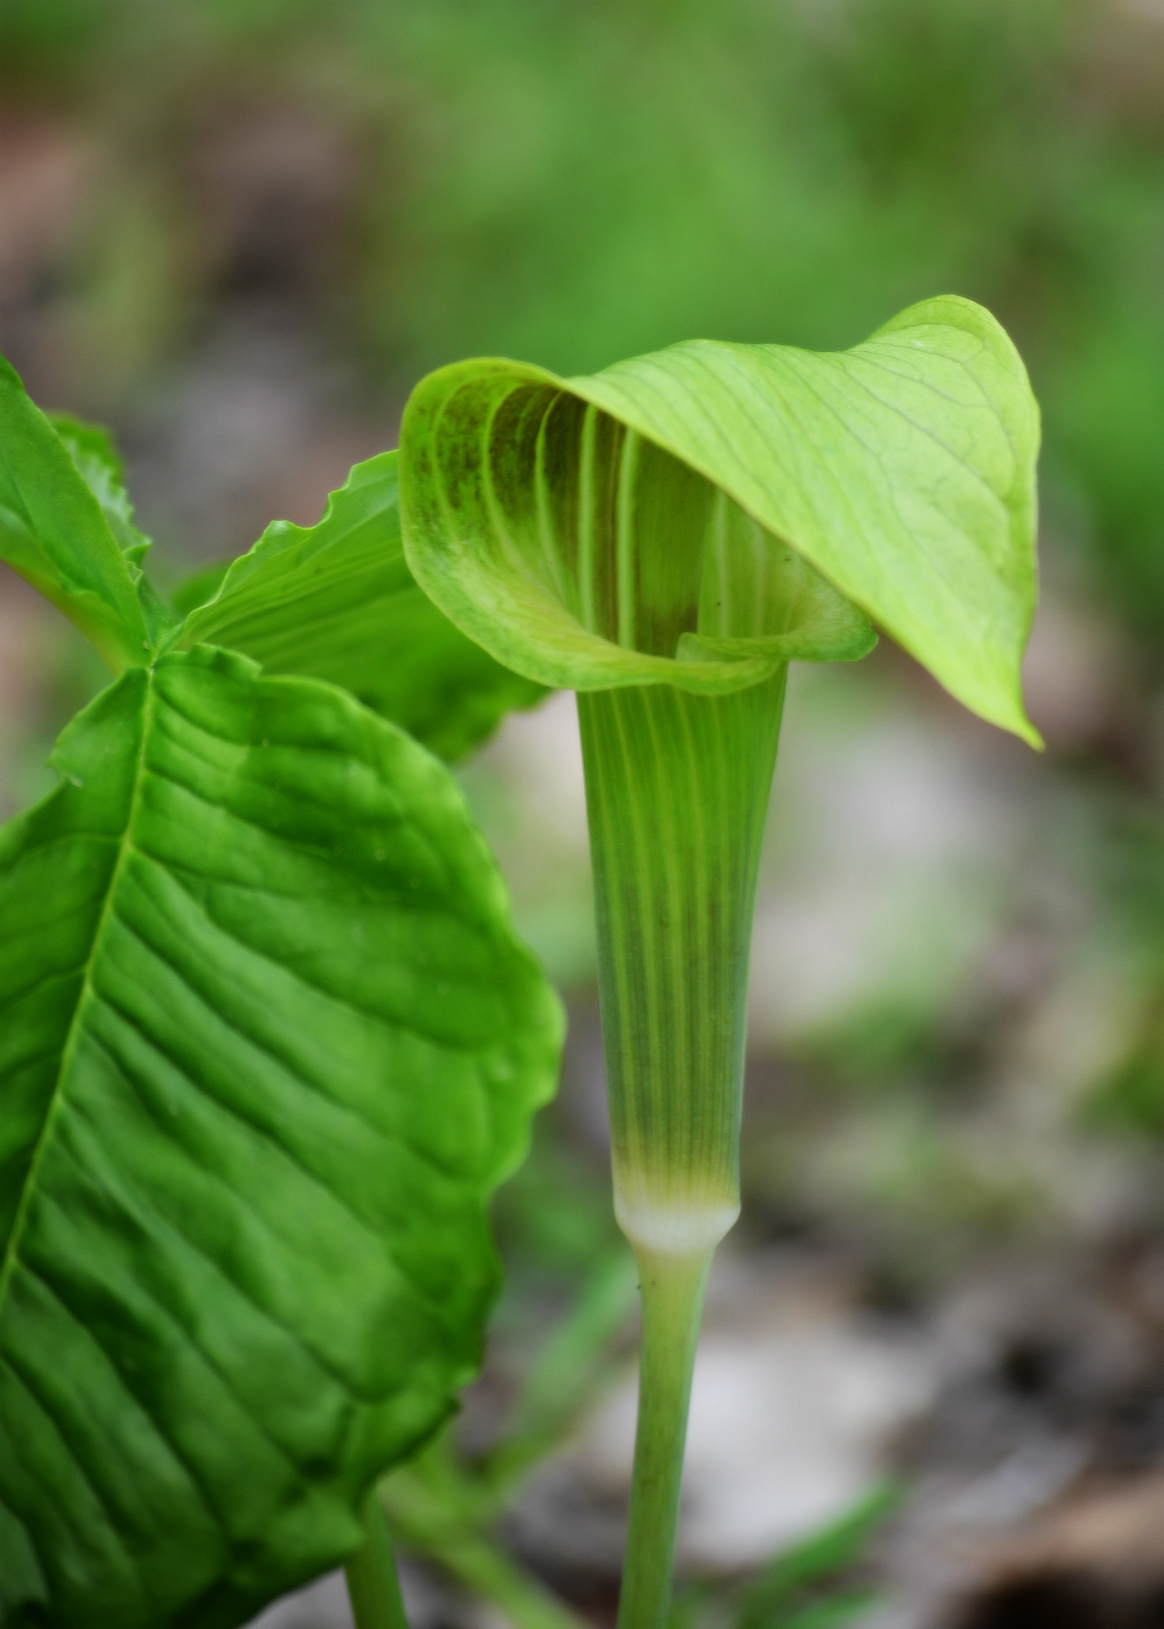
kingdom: Plantae
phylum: Tracheophyta
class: Liliopsida
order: Alismatales
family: Araceae
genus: Arisaema
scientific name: Arisaema triphyllum
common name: Jack-in-the-pulpit
